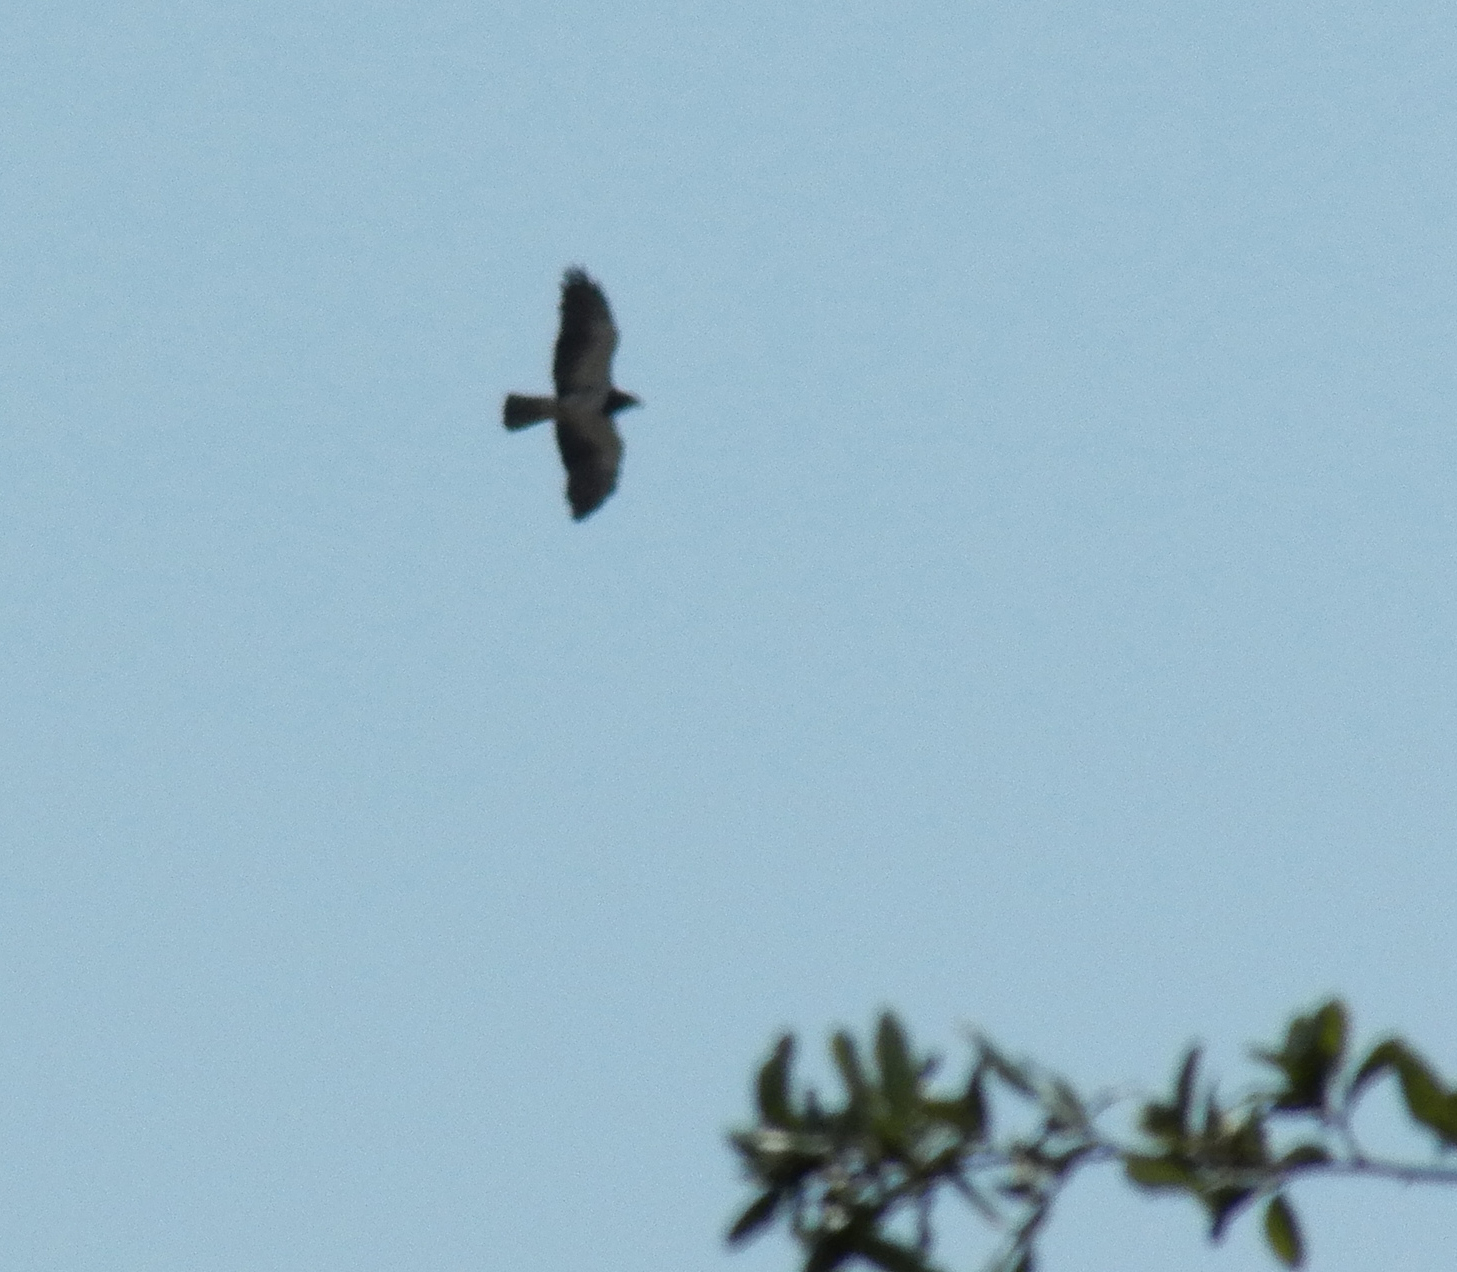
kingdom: Animalia
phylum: Chordata
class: Aves
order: Accipitriformes
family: Accipitridae
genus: Buteo
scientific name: Buteo swainsoni
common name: Swainson's hawk
